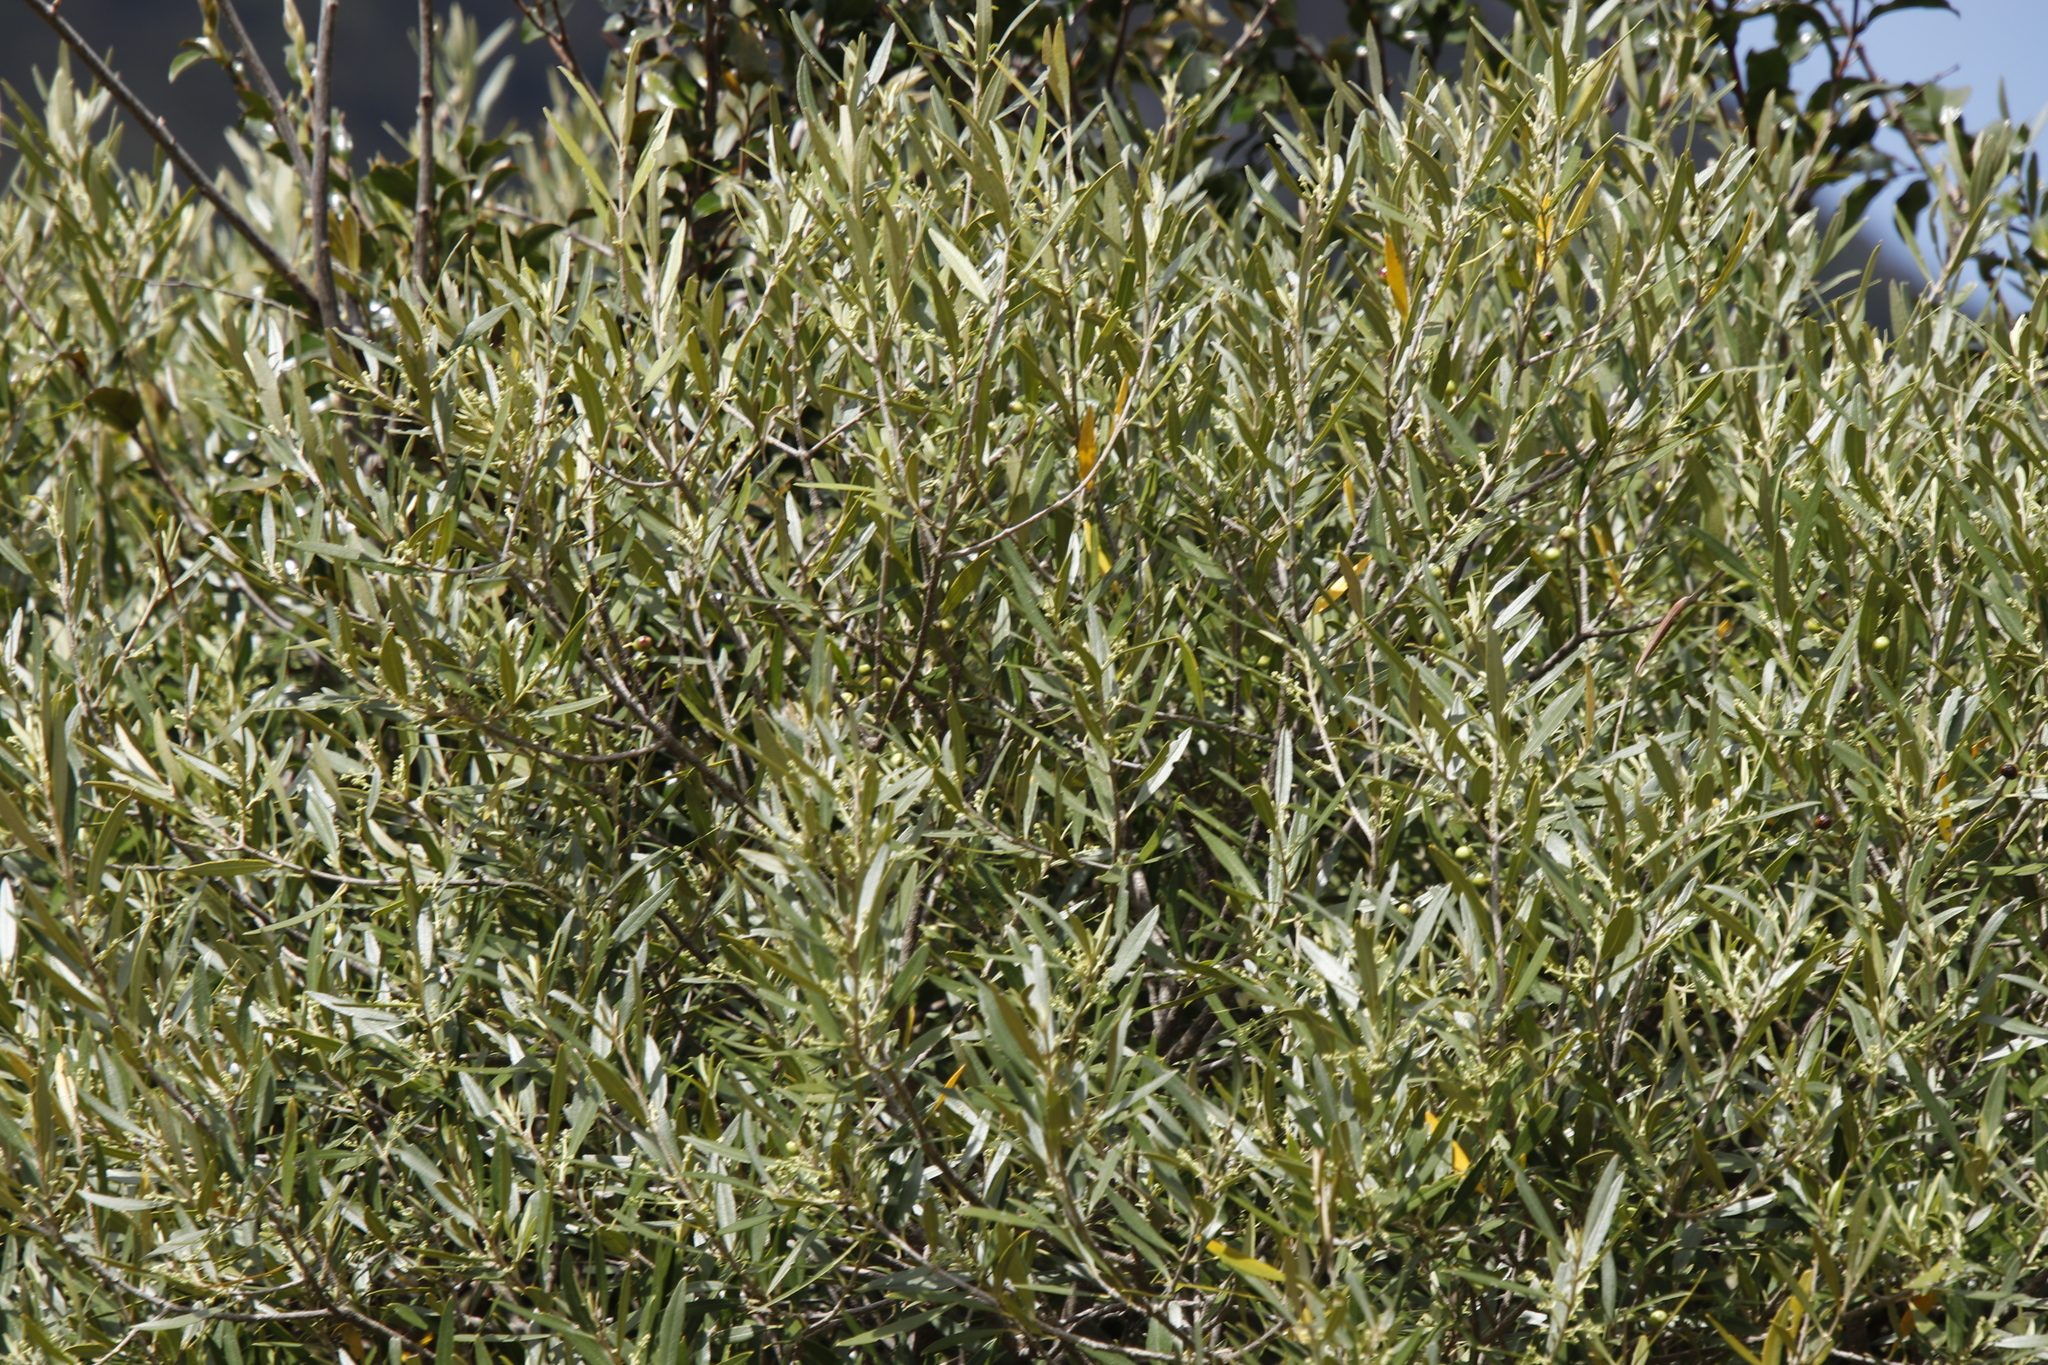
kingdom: Plantae
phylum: Tracheophyta
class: Magnoliopsida
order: Lamiales
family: Oleaceae
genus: Olea
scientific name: Olea europaea
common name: Olive
